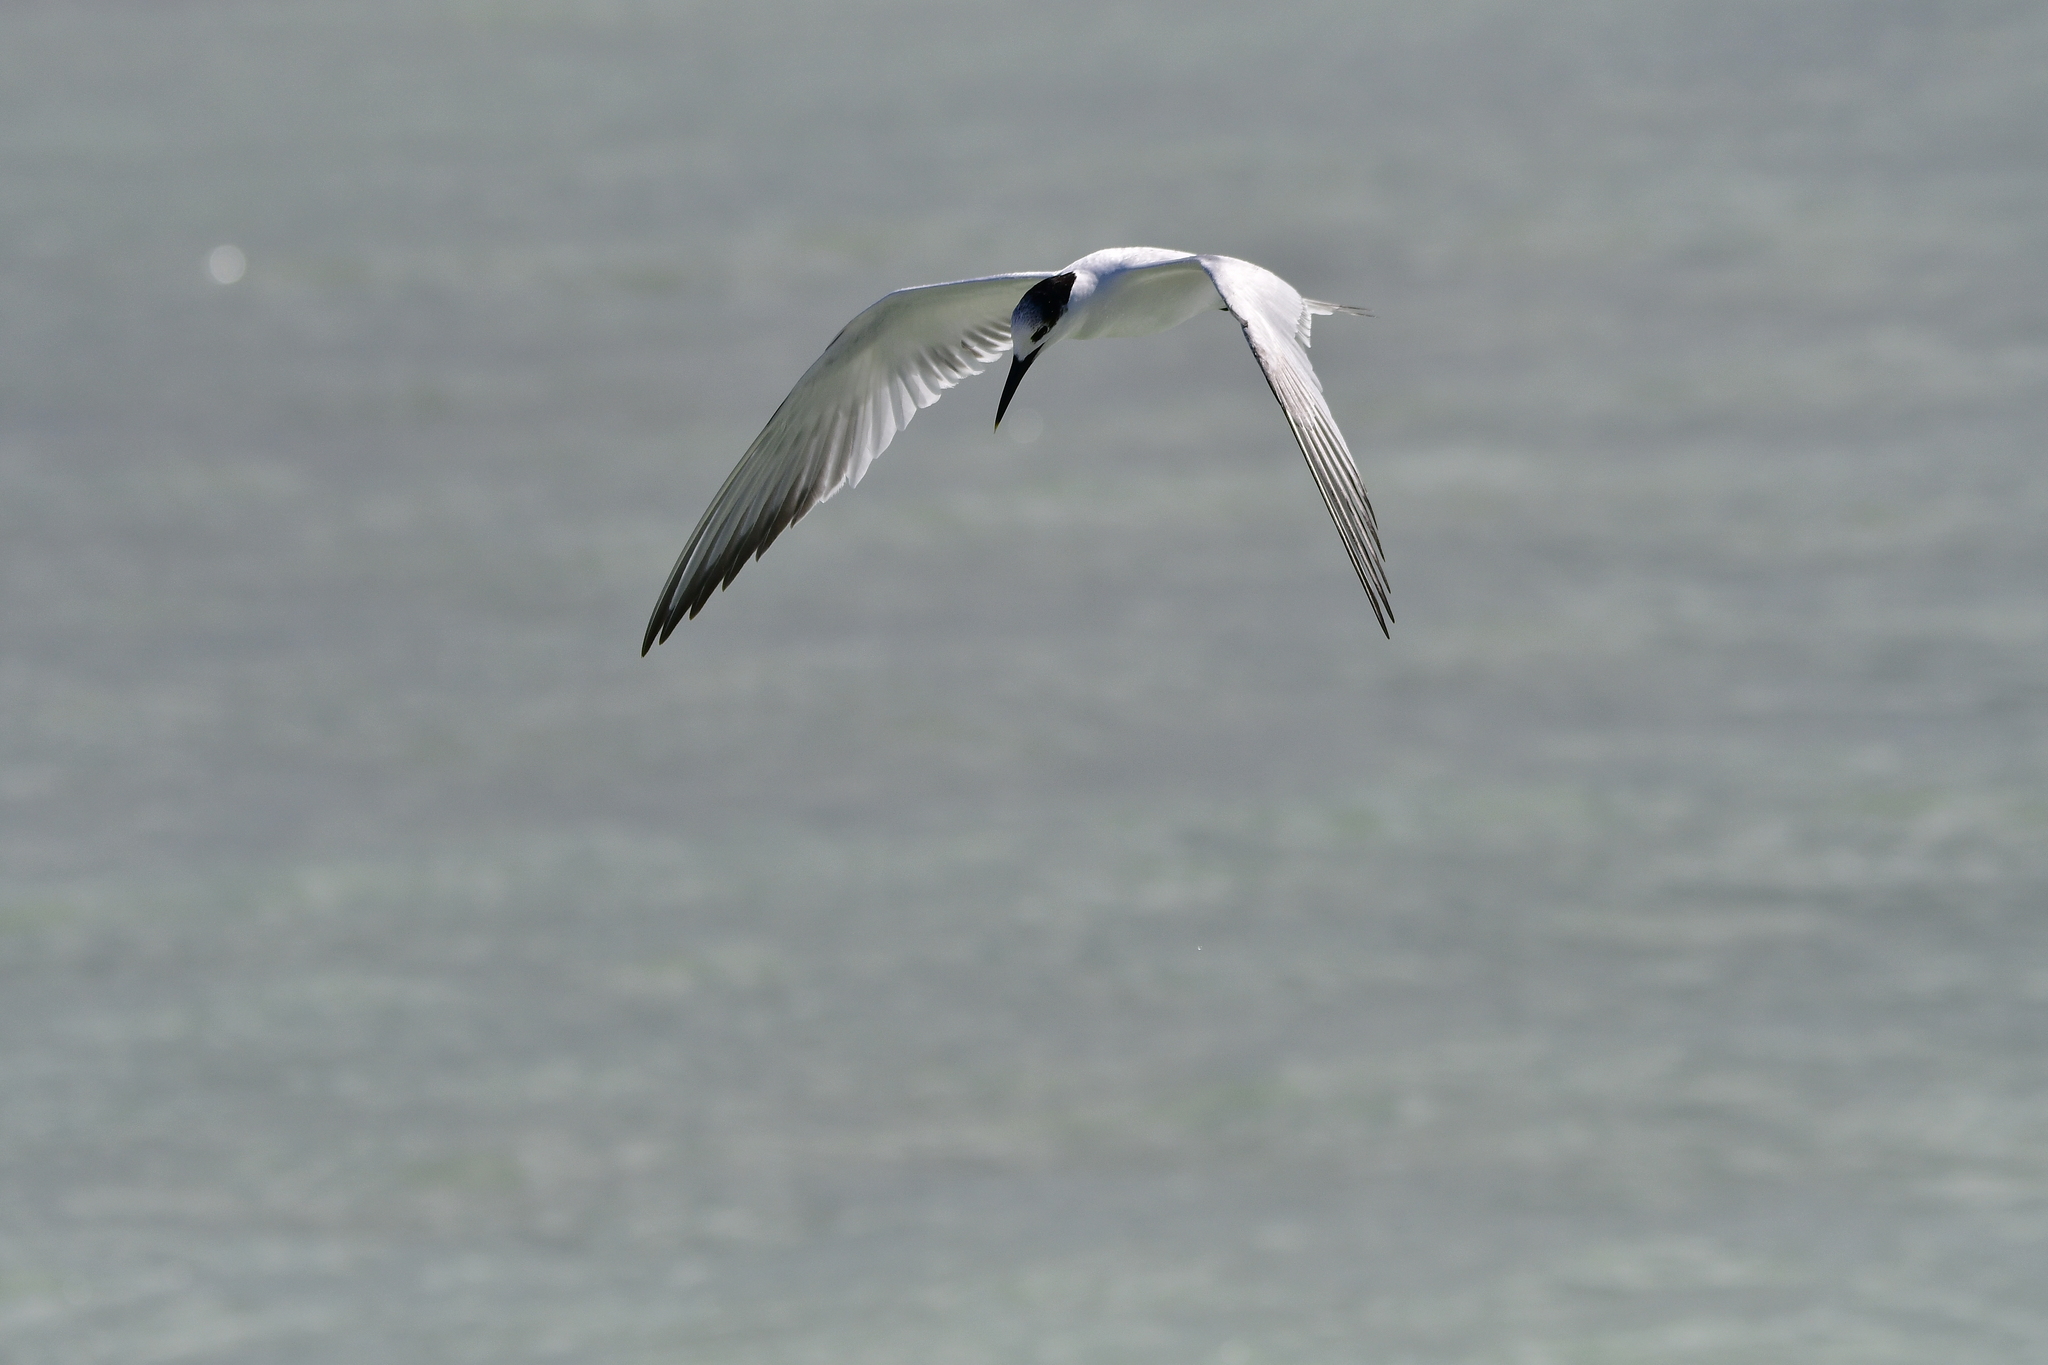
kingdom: Animalia
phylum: Chordata
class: Aves
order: Charadriiformes
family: Laridae
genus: Thalasseus
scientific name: Thalasseus sandvicensis
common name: Sandwich tern
